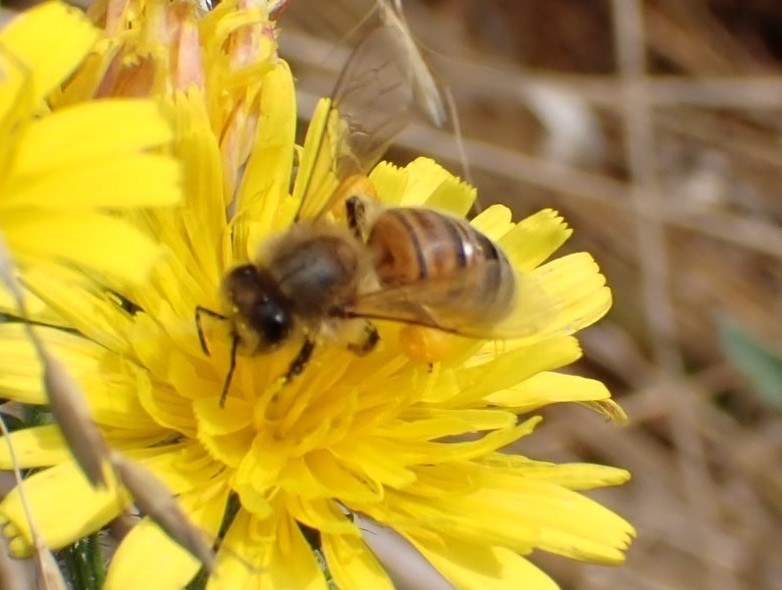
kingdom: Animalia
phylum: Arthropoda
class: Insecta
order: Hymenoptera
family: Apidae
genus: Apis
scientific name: Apis mellifera
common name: Honey bee
